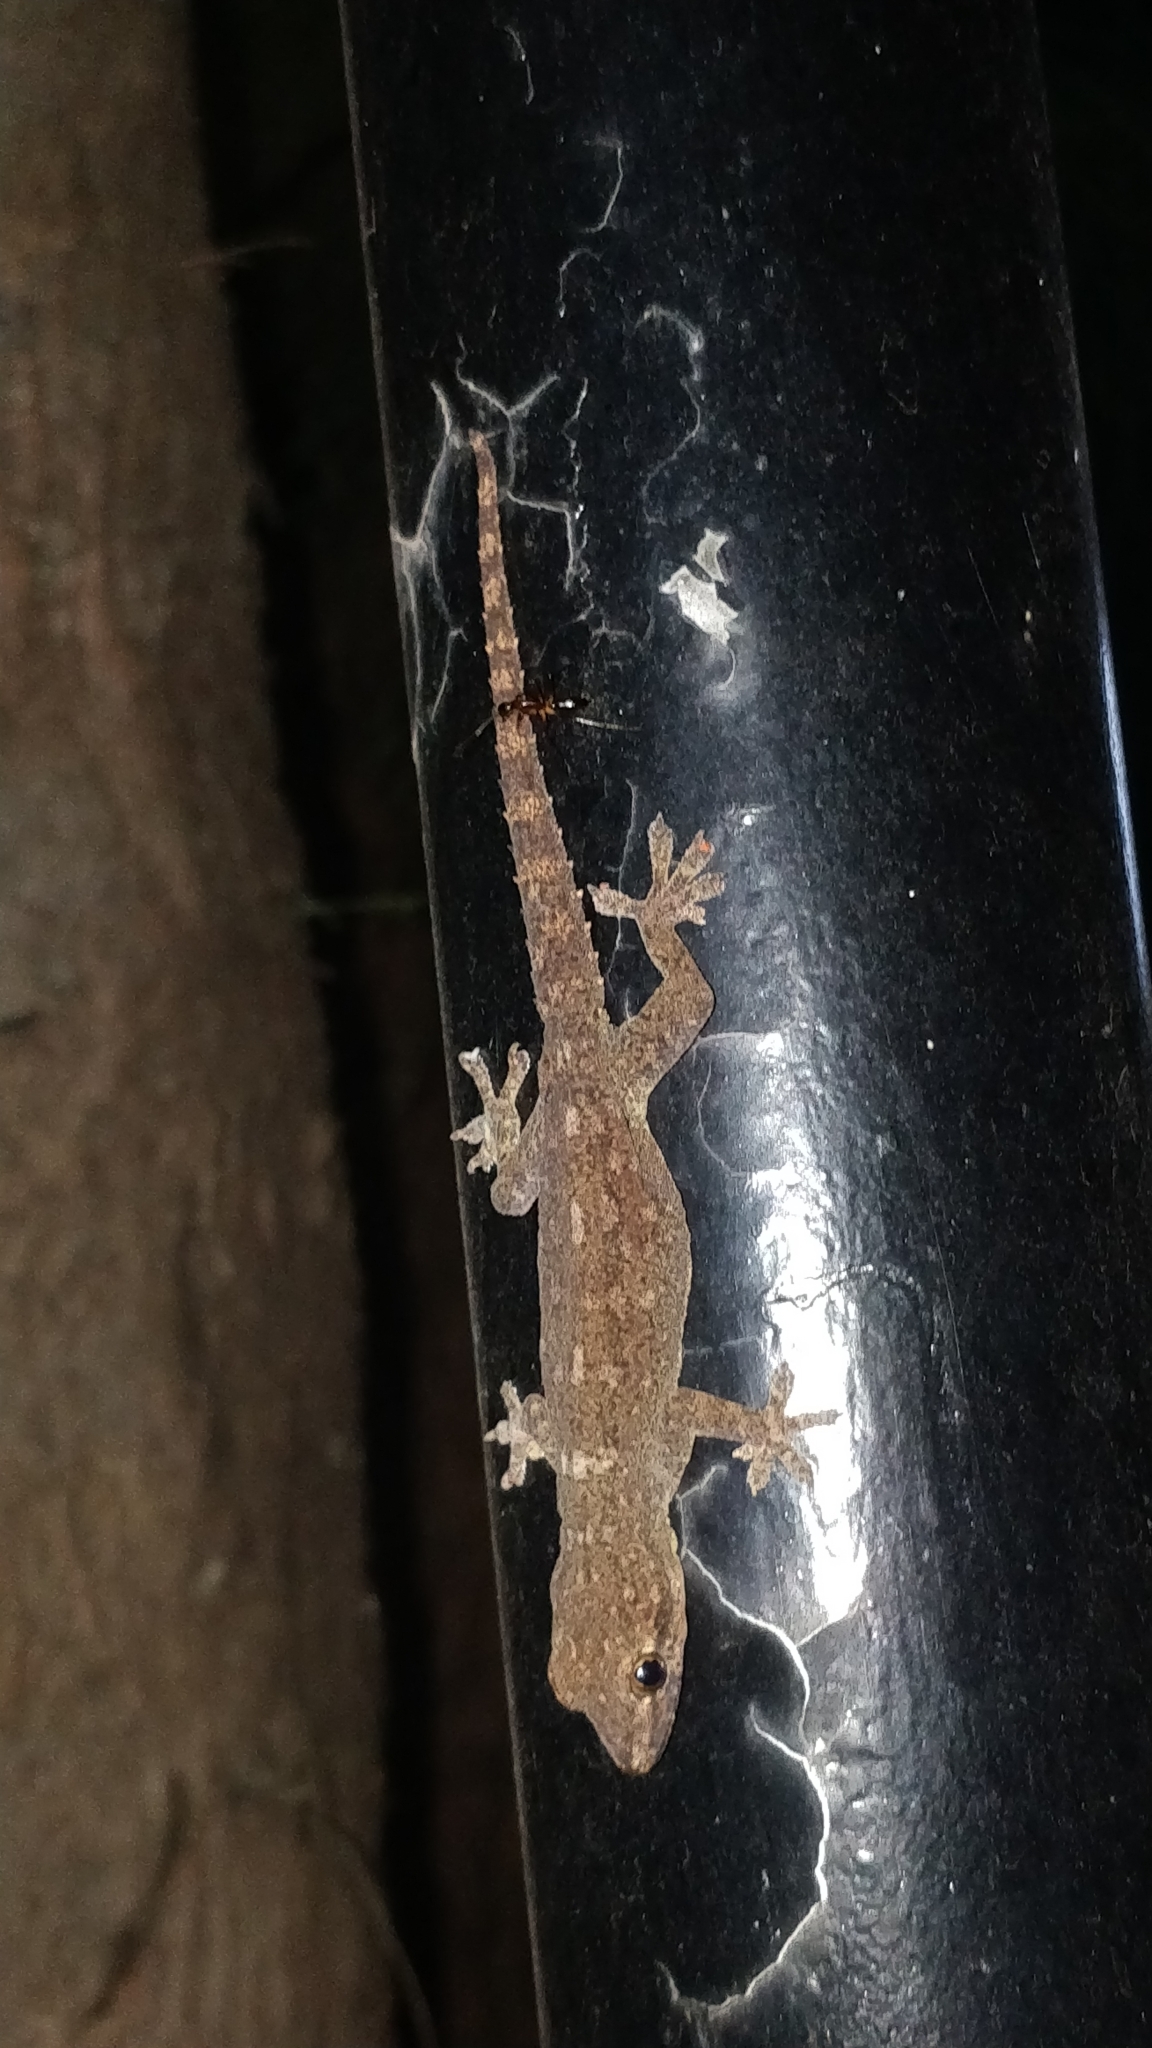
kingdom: Animalia
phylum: Chordata
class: Squamata
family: Gekkonidae
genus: Hemidactylus
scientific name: Hemidactylus frenatus
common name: Common house gecko
